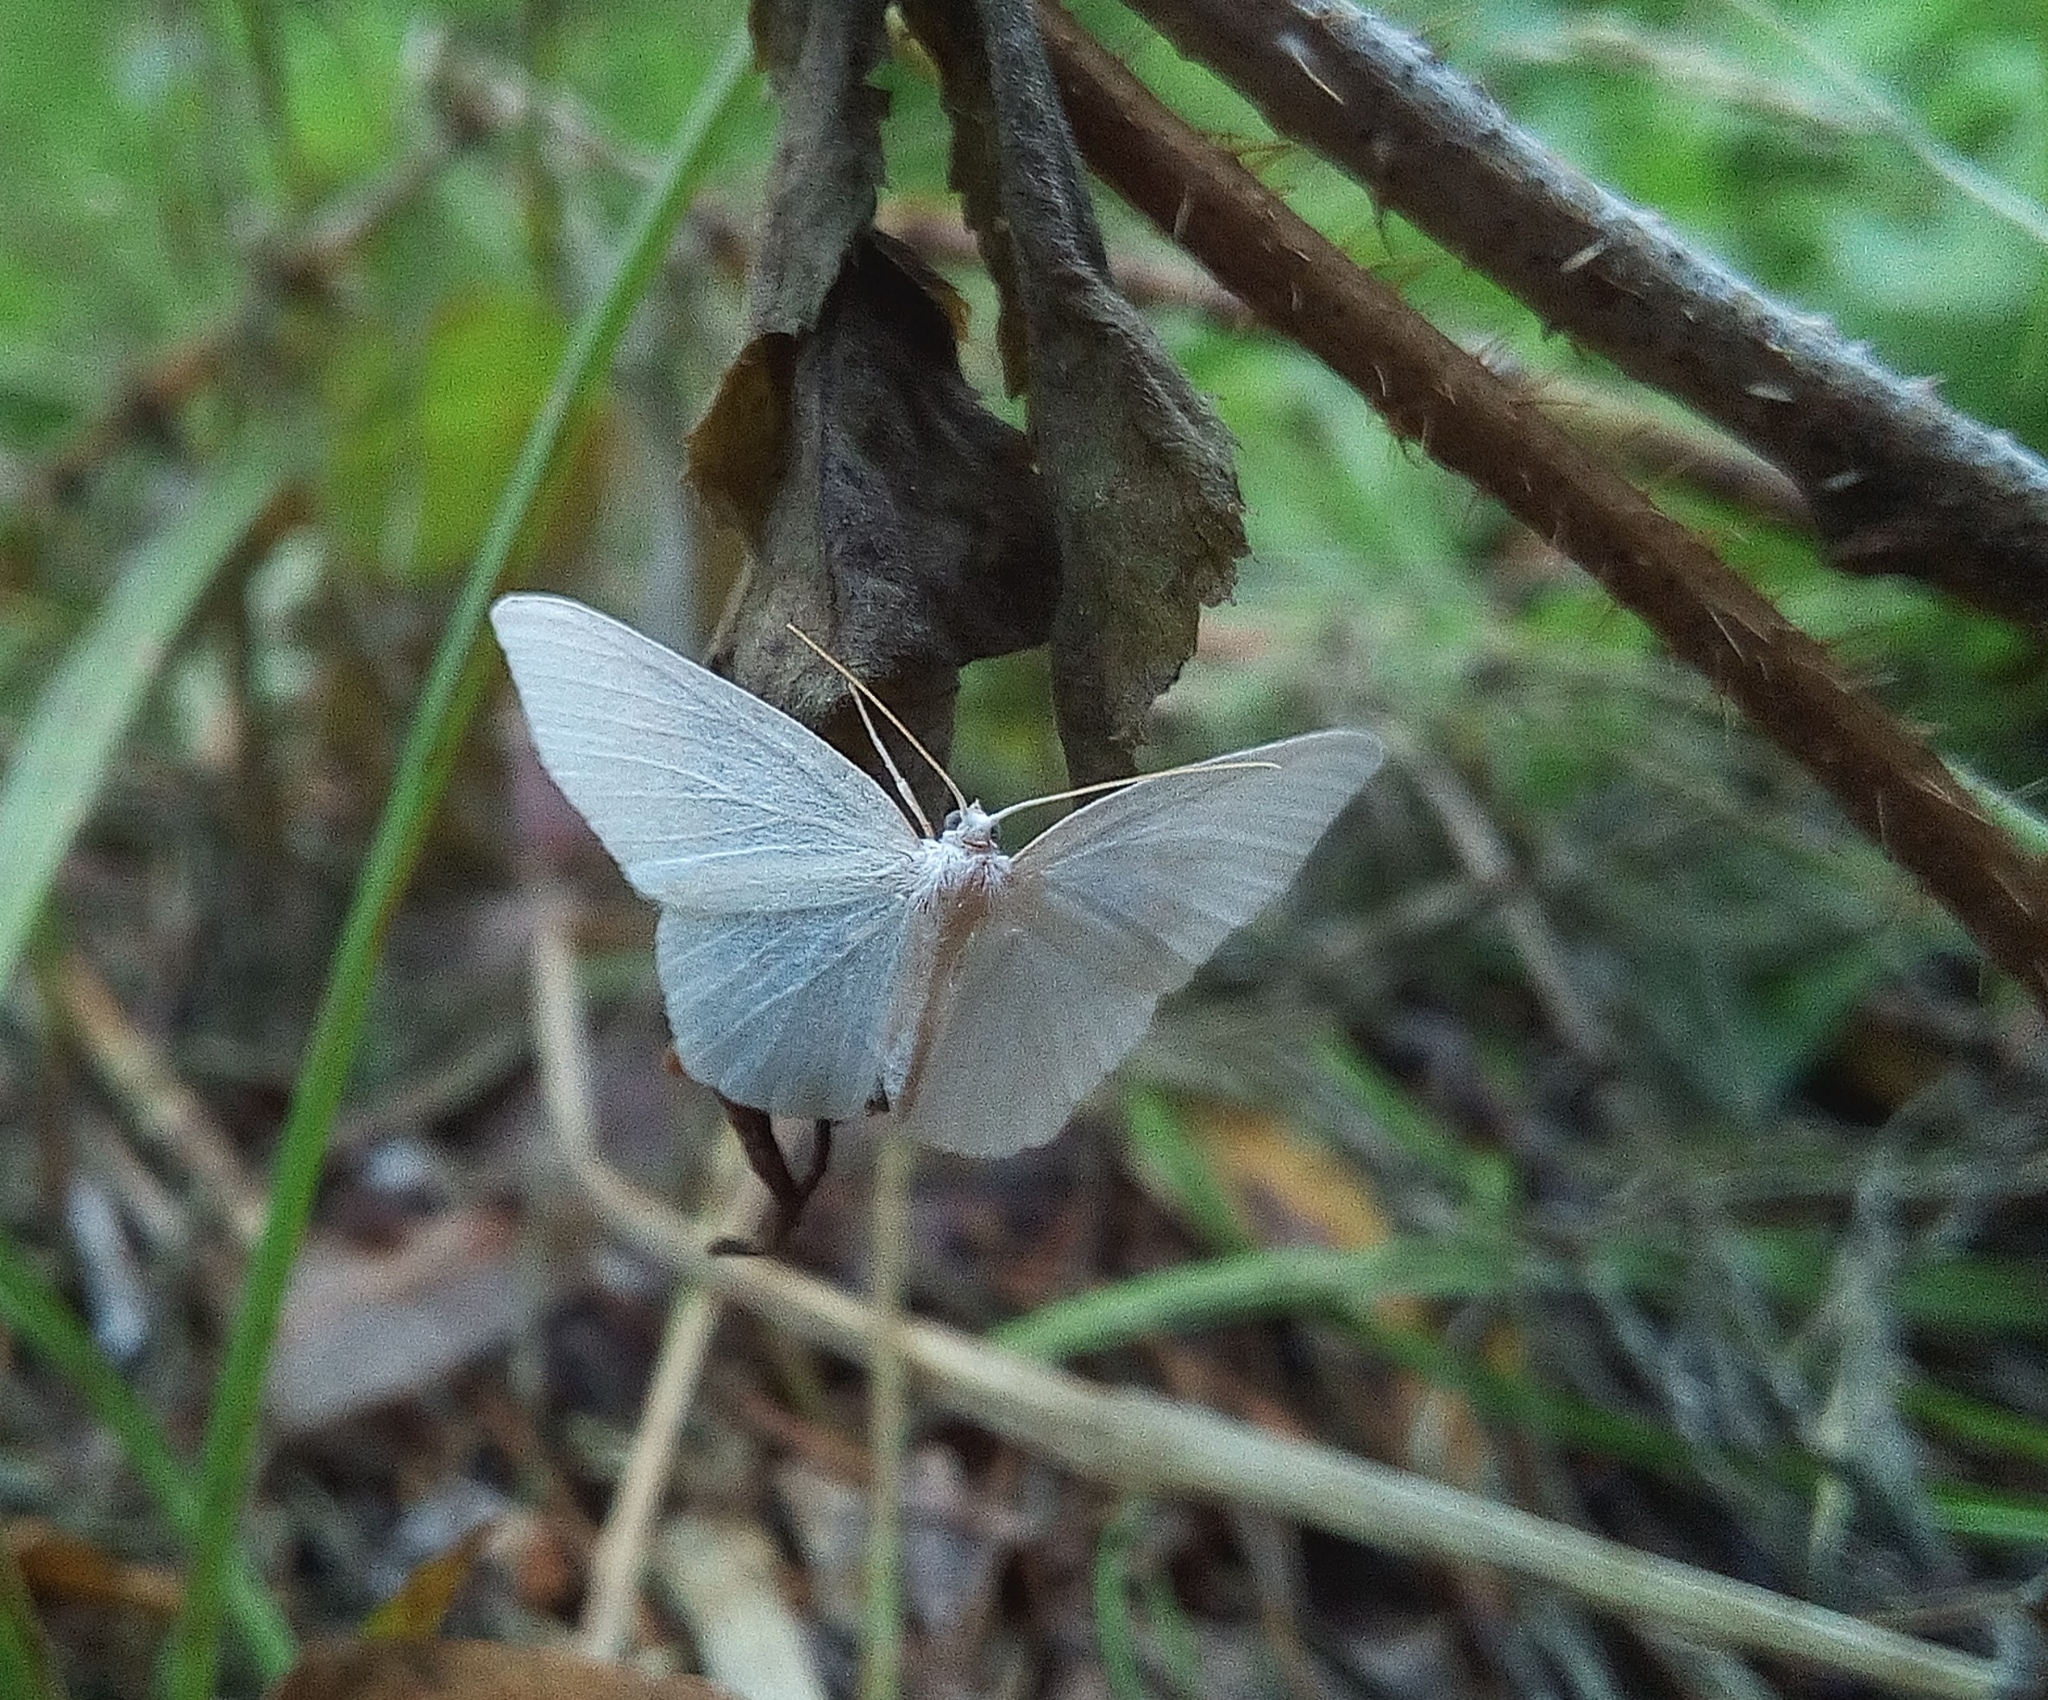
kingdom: Animalia
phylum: Arthropoda
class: Insecta
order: Lepidoptera
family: Geometridae
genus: Jodis
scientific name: Jodis lactearia
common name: Little emerald
